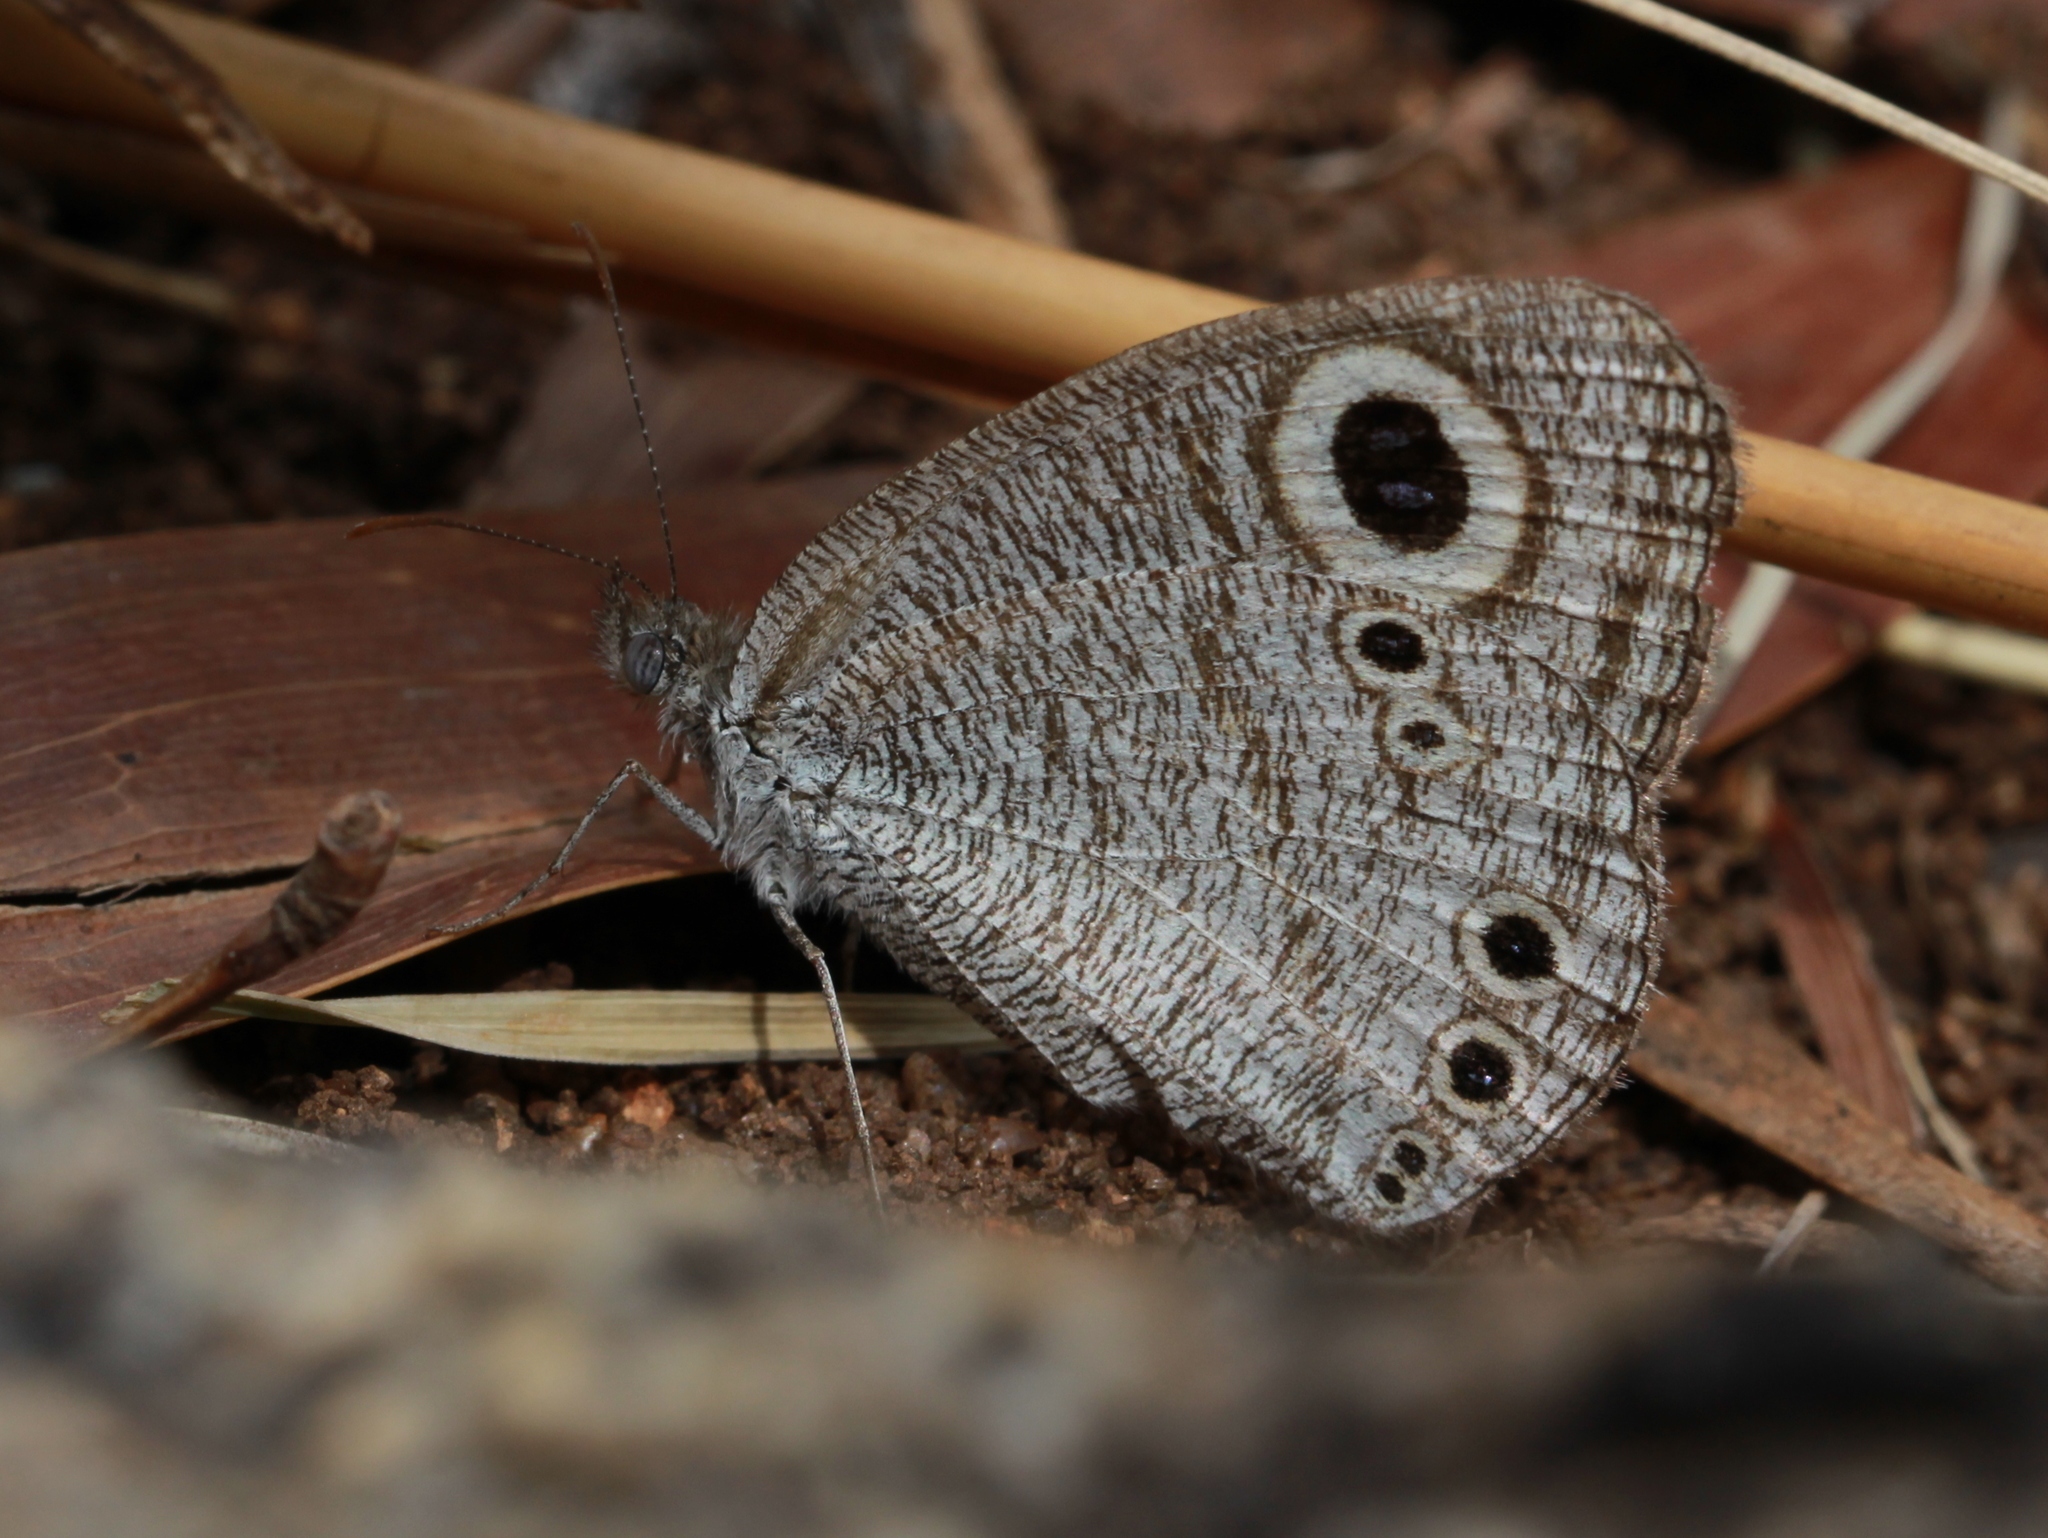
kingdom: Animalia
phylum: Arthropoda
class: Insecta
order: Lepidoptera
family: Nymphalidae
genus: Ypthima
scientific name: Ypthima avanta
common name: Jewel five-ring
